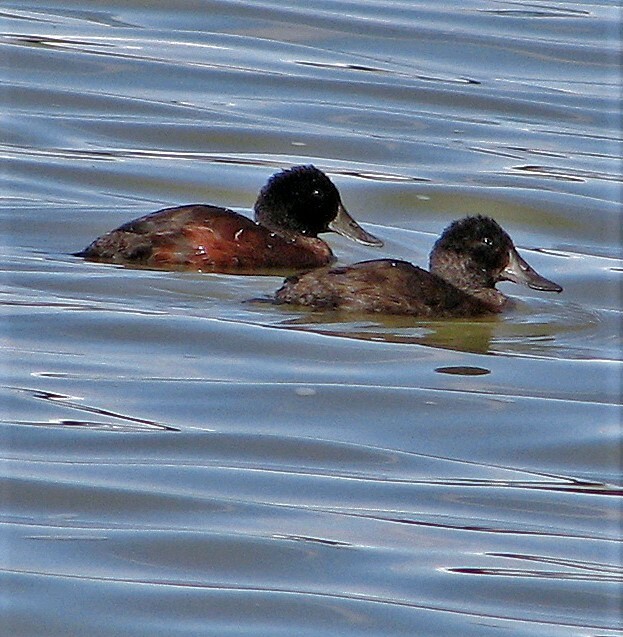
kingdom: Animalia
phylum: Chordata
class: Aves
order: Anseriformes
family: Anatidae
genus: Oxyura
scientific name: Oxyura ferruginea
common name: Andean duck
